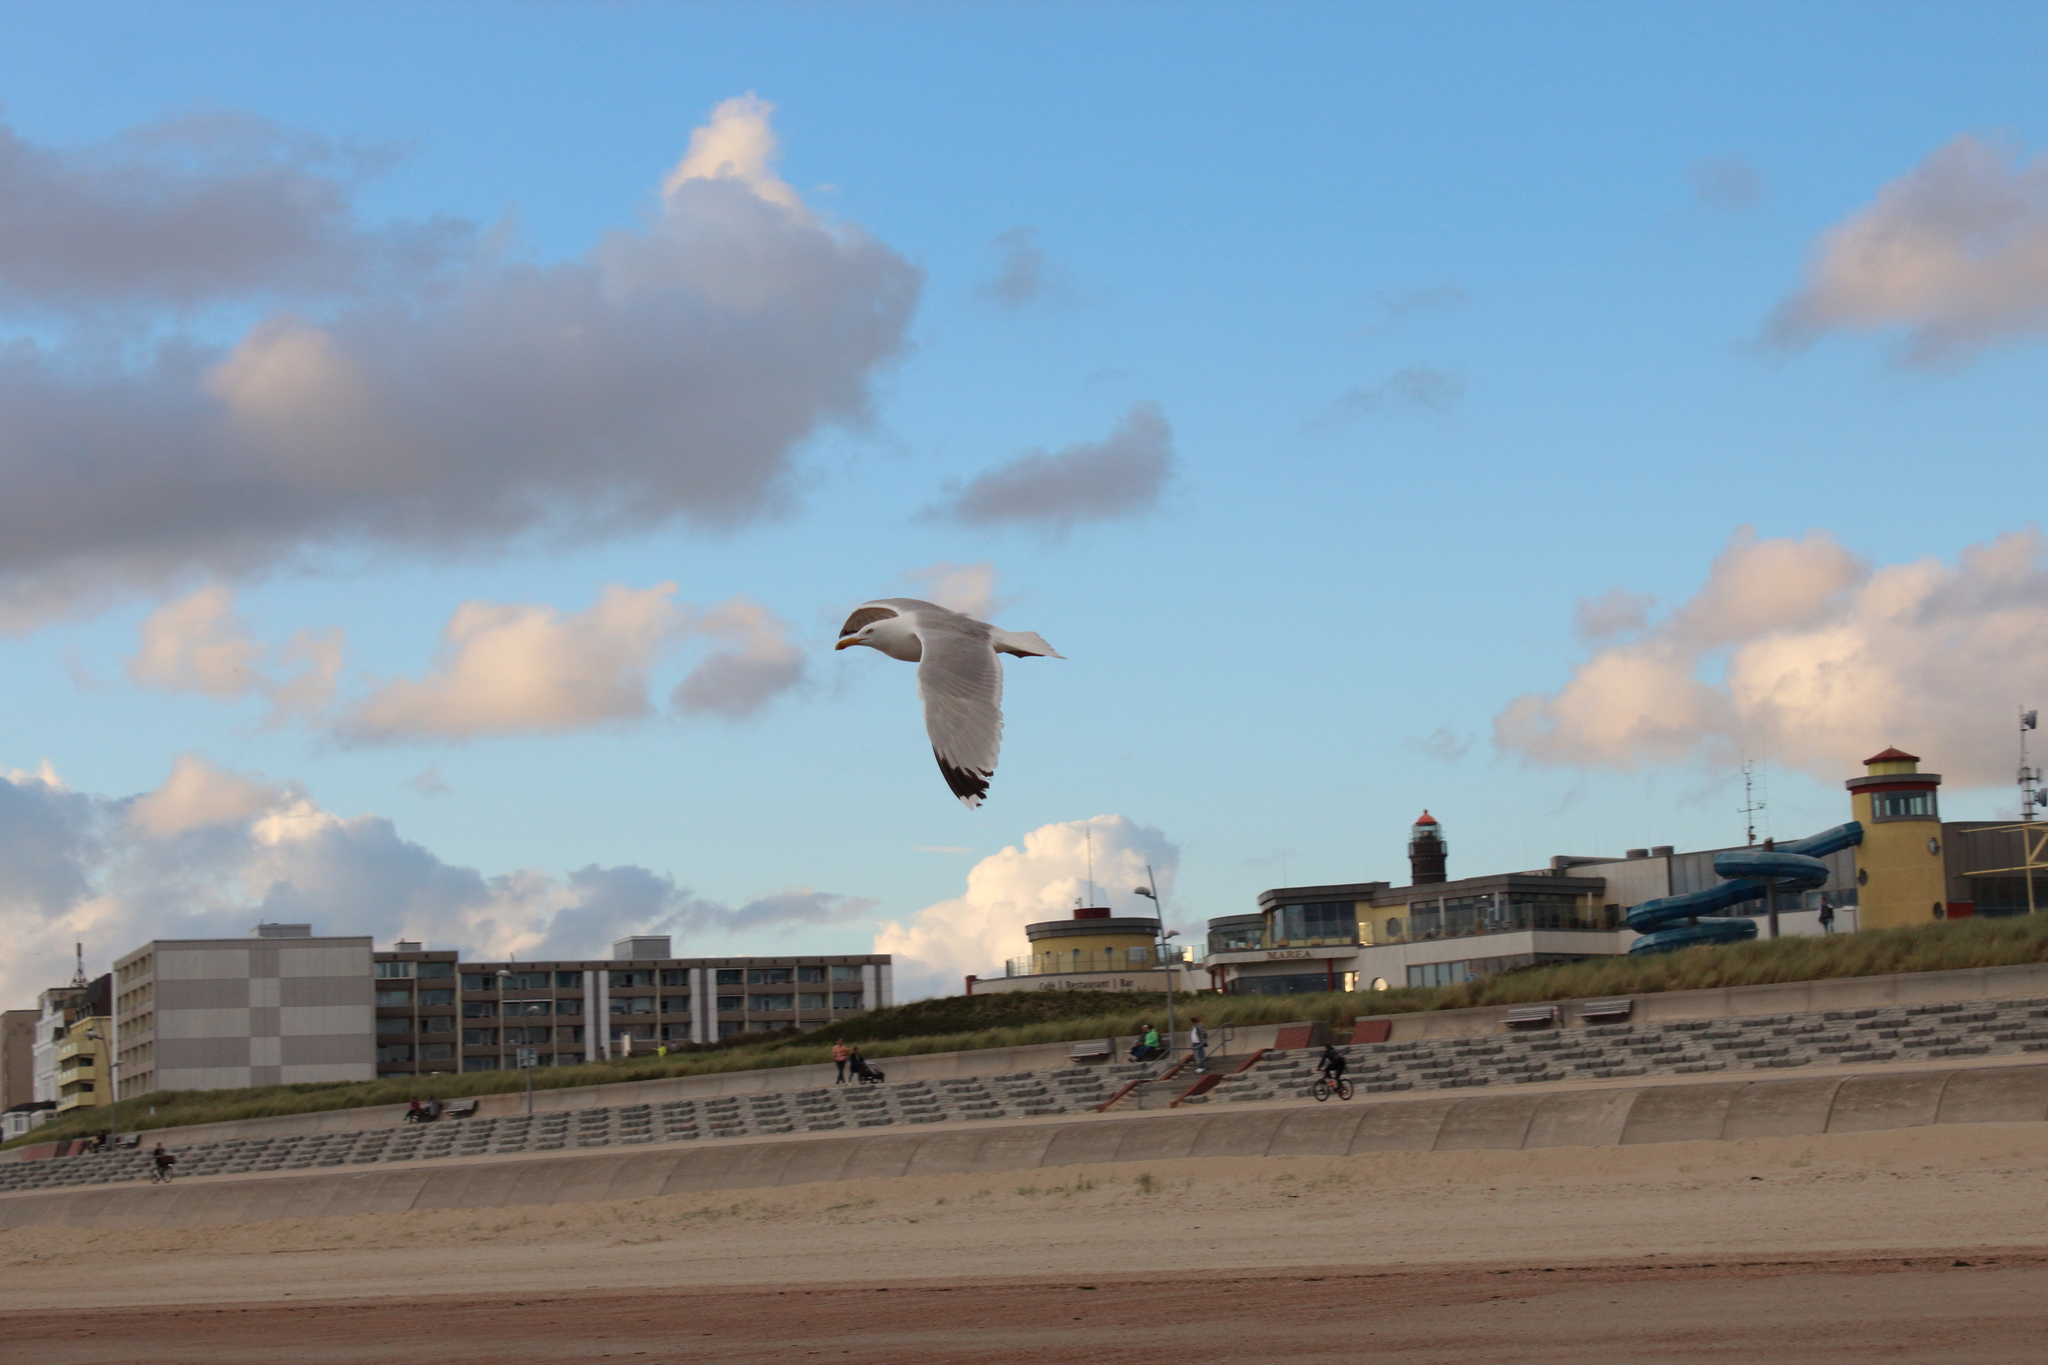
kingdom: Animalia
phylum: Chordata
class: Aves
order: Charadriiformes
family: Laridae
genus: Larus
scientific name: Larus argentatus
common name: Herring gull
